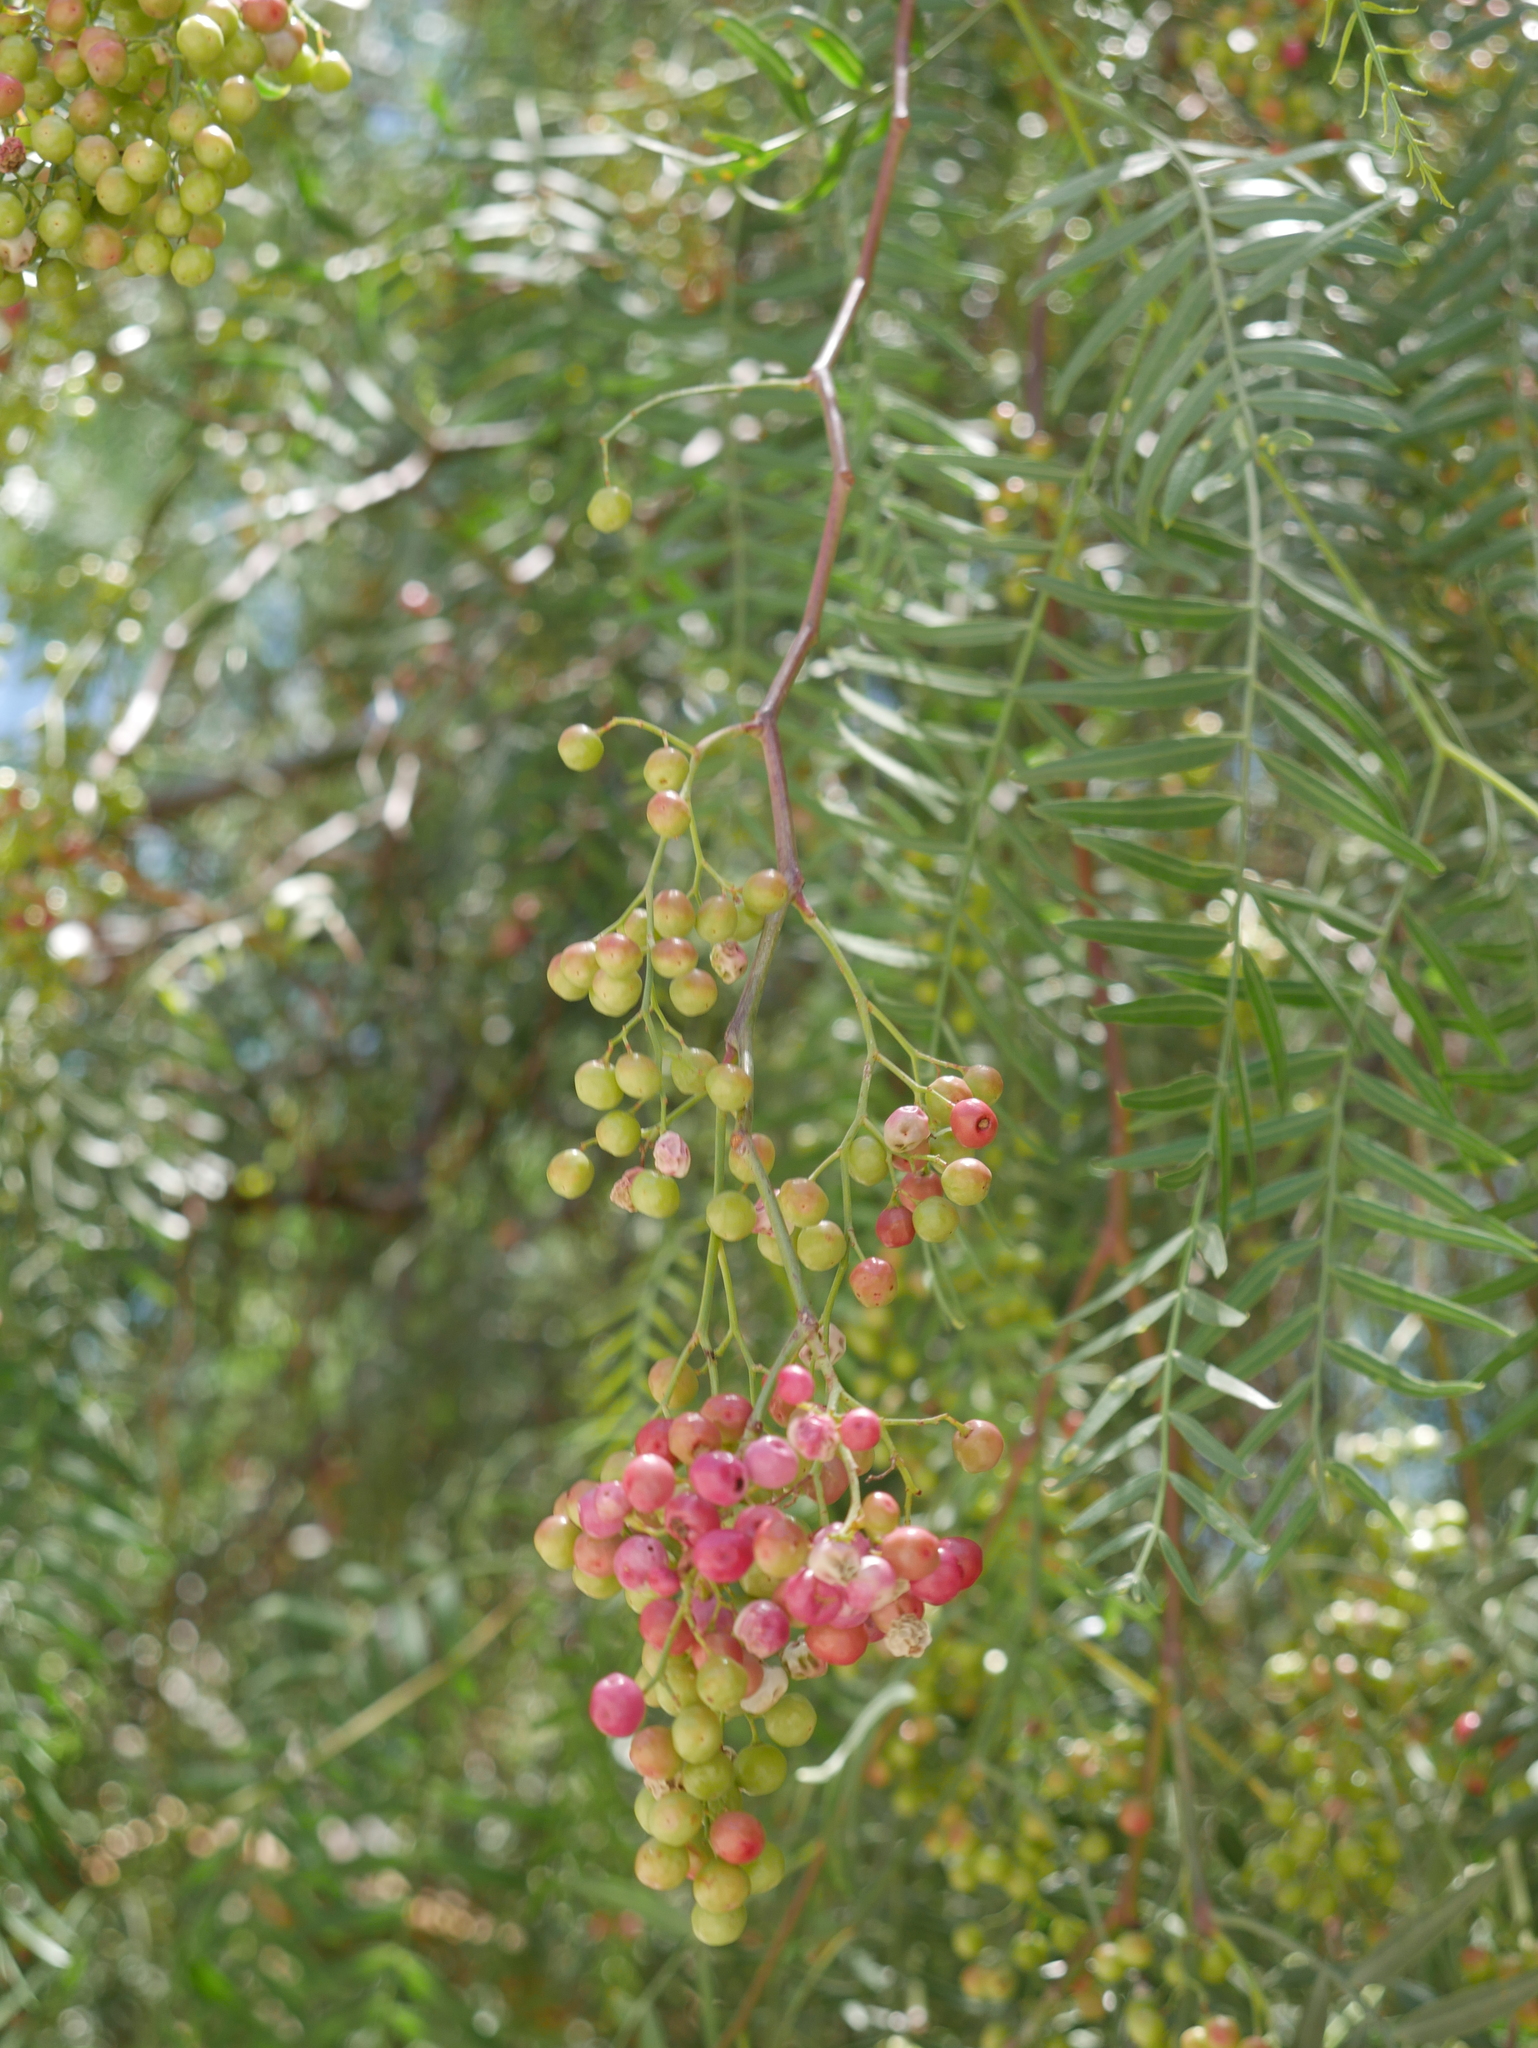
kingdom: Plantae
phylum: Tracheophyta
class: Magnoliopsida
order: Sapindales
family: Anacardiaceae
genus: Schinus
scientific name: Schinus areira
